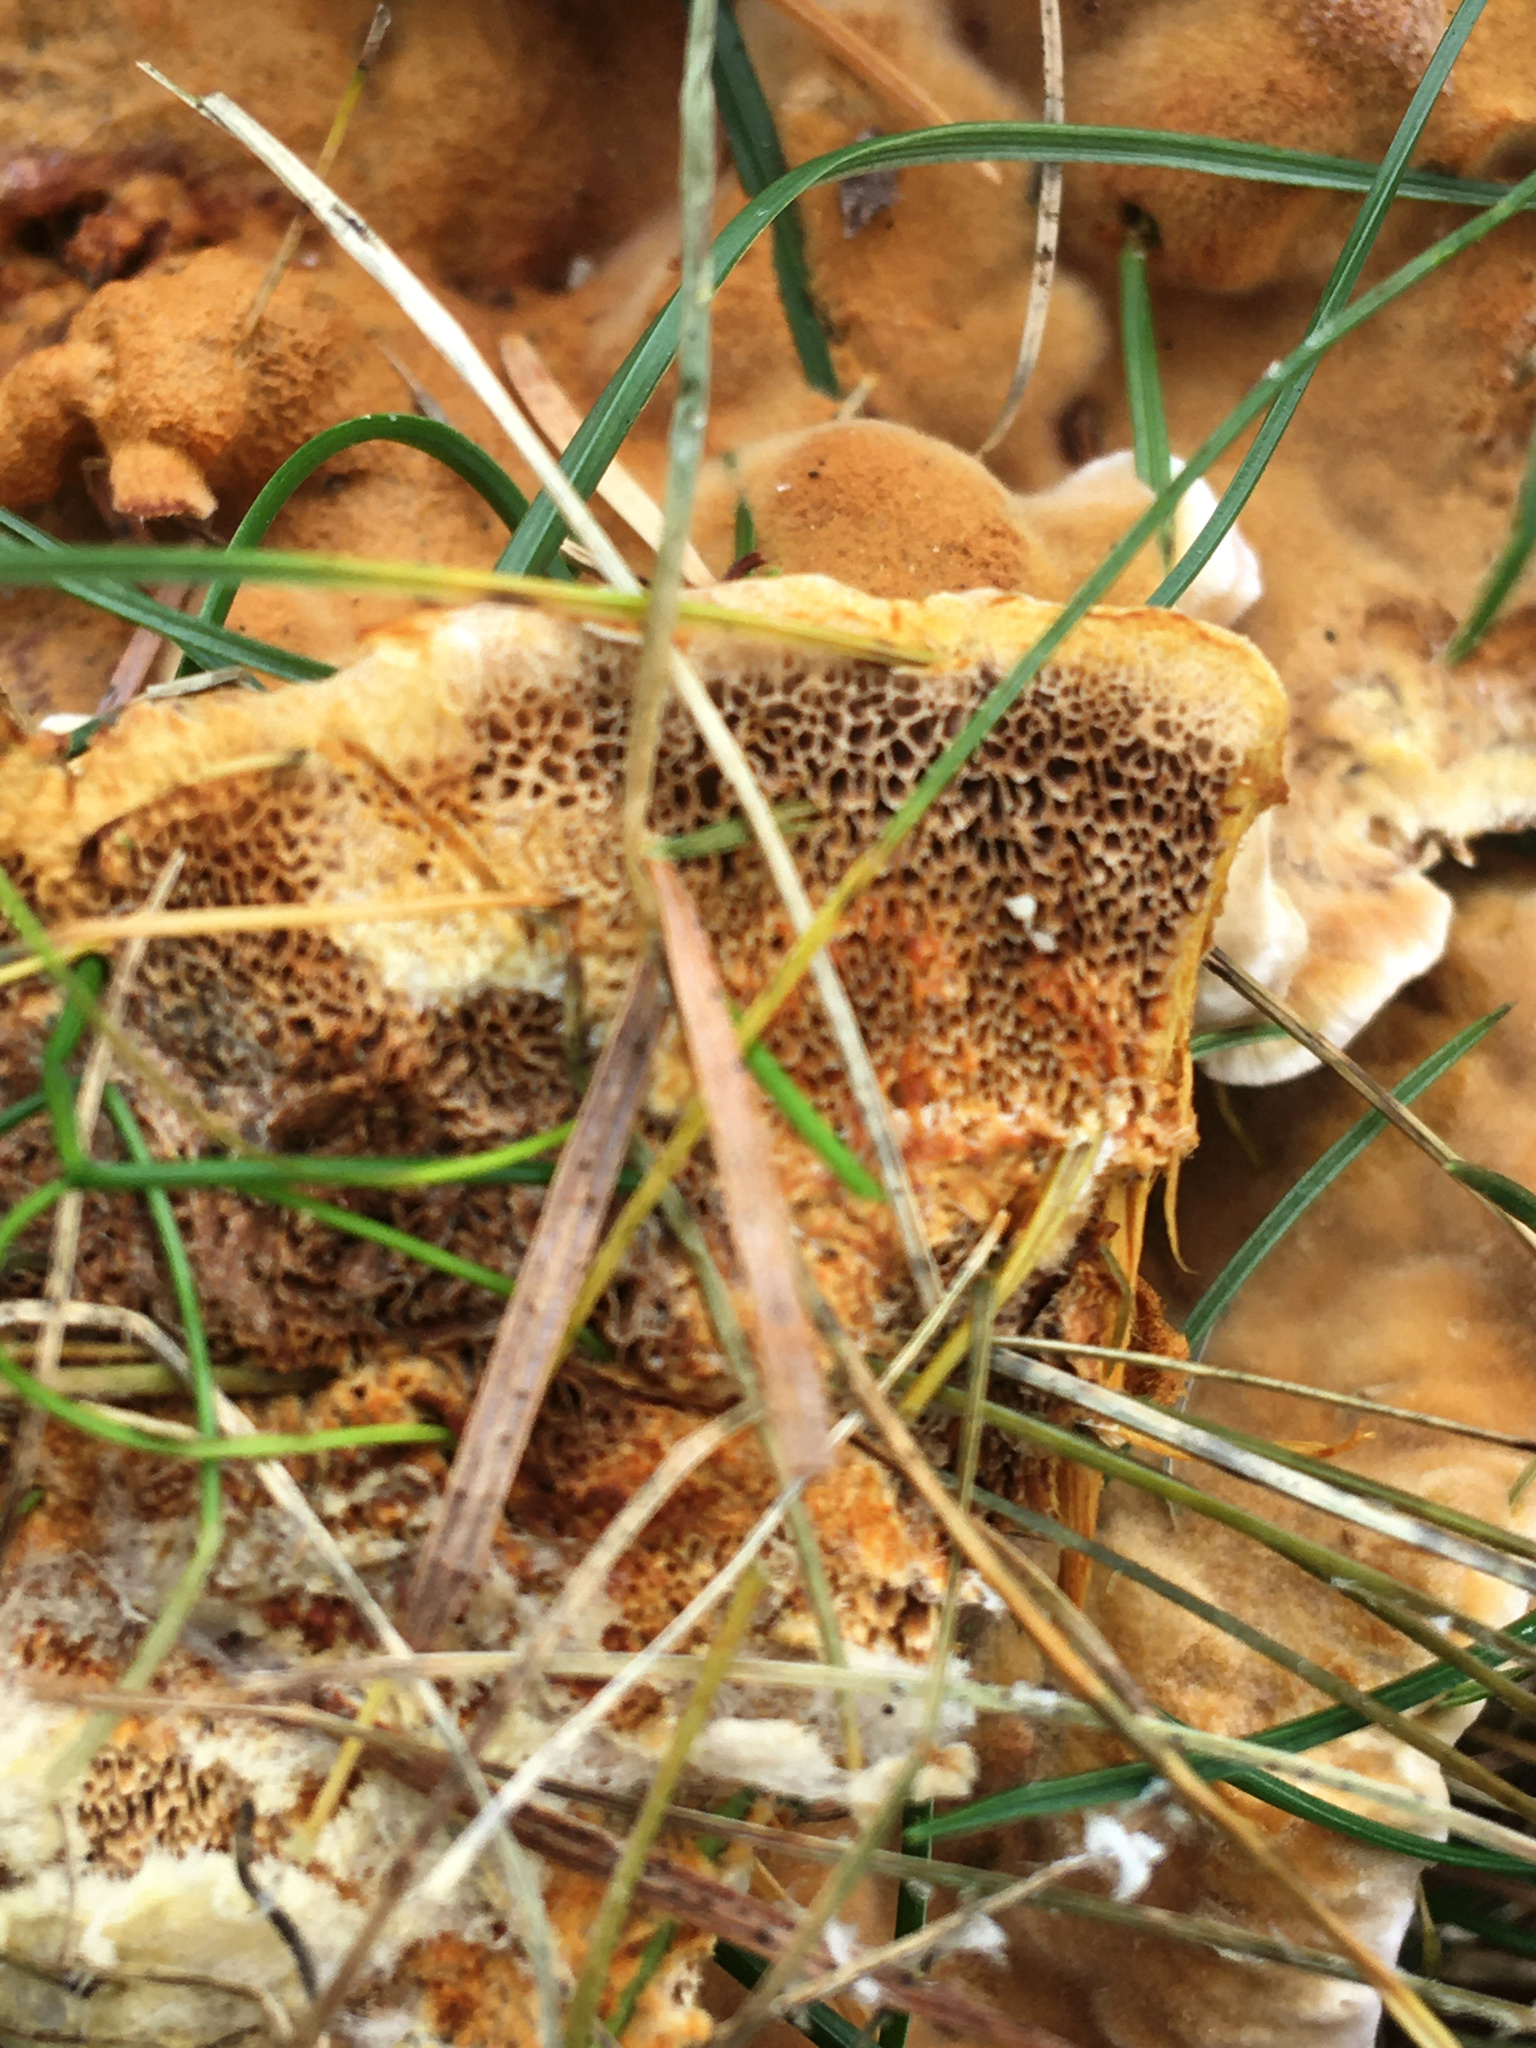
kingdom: Fungi
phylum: Basidiomycota
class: Agaricomycetes
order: Hymenochaetales
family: Hymenochaetaceae
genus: Onnia
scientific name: Onnia tomentosa
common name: Velvet rosette
